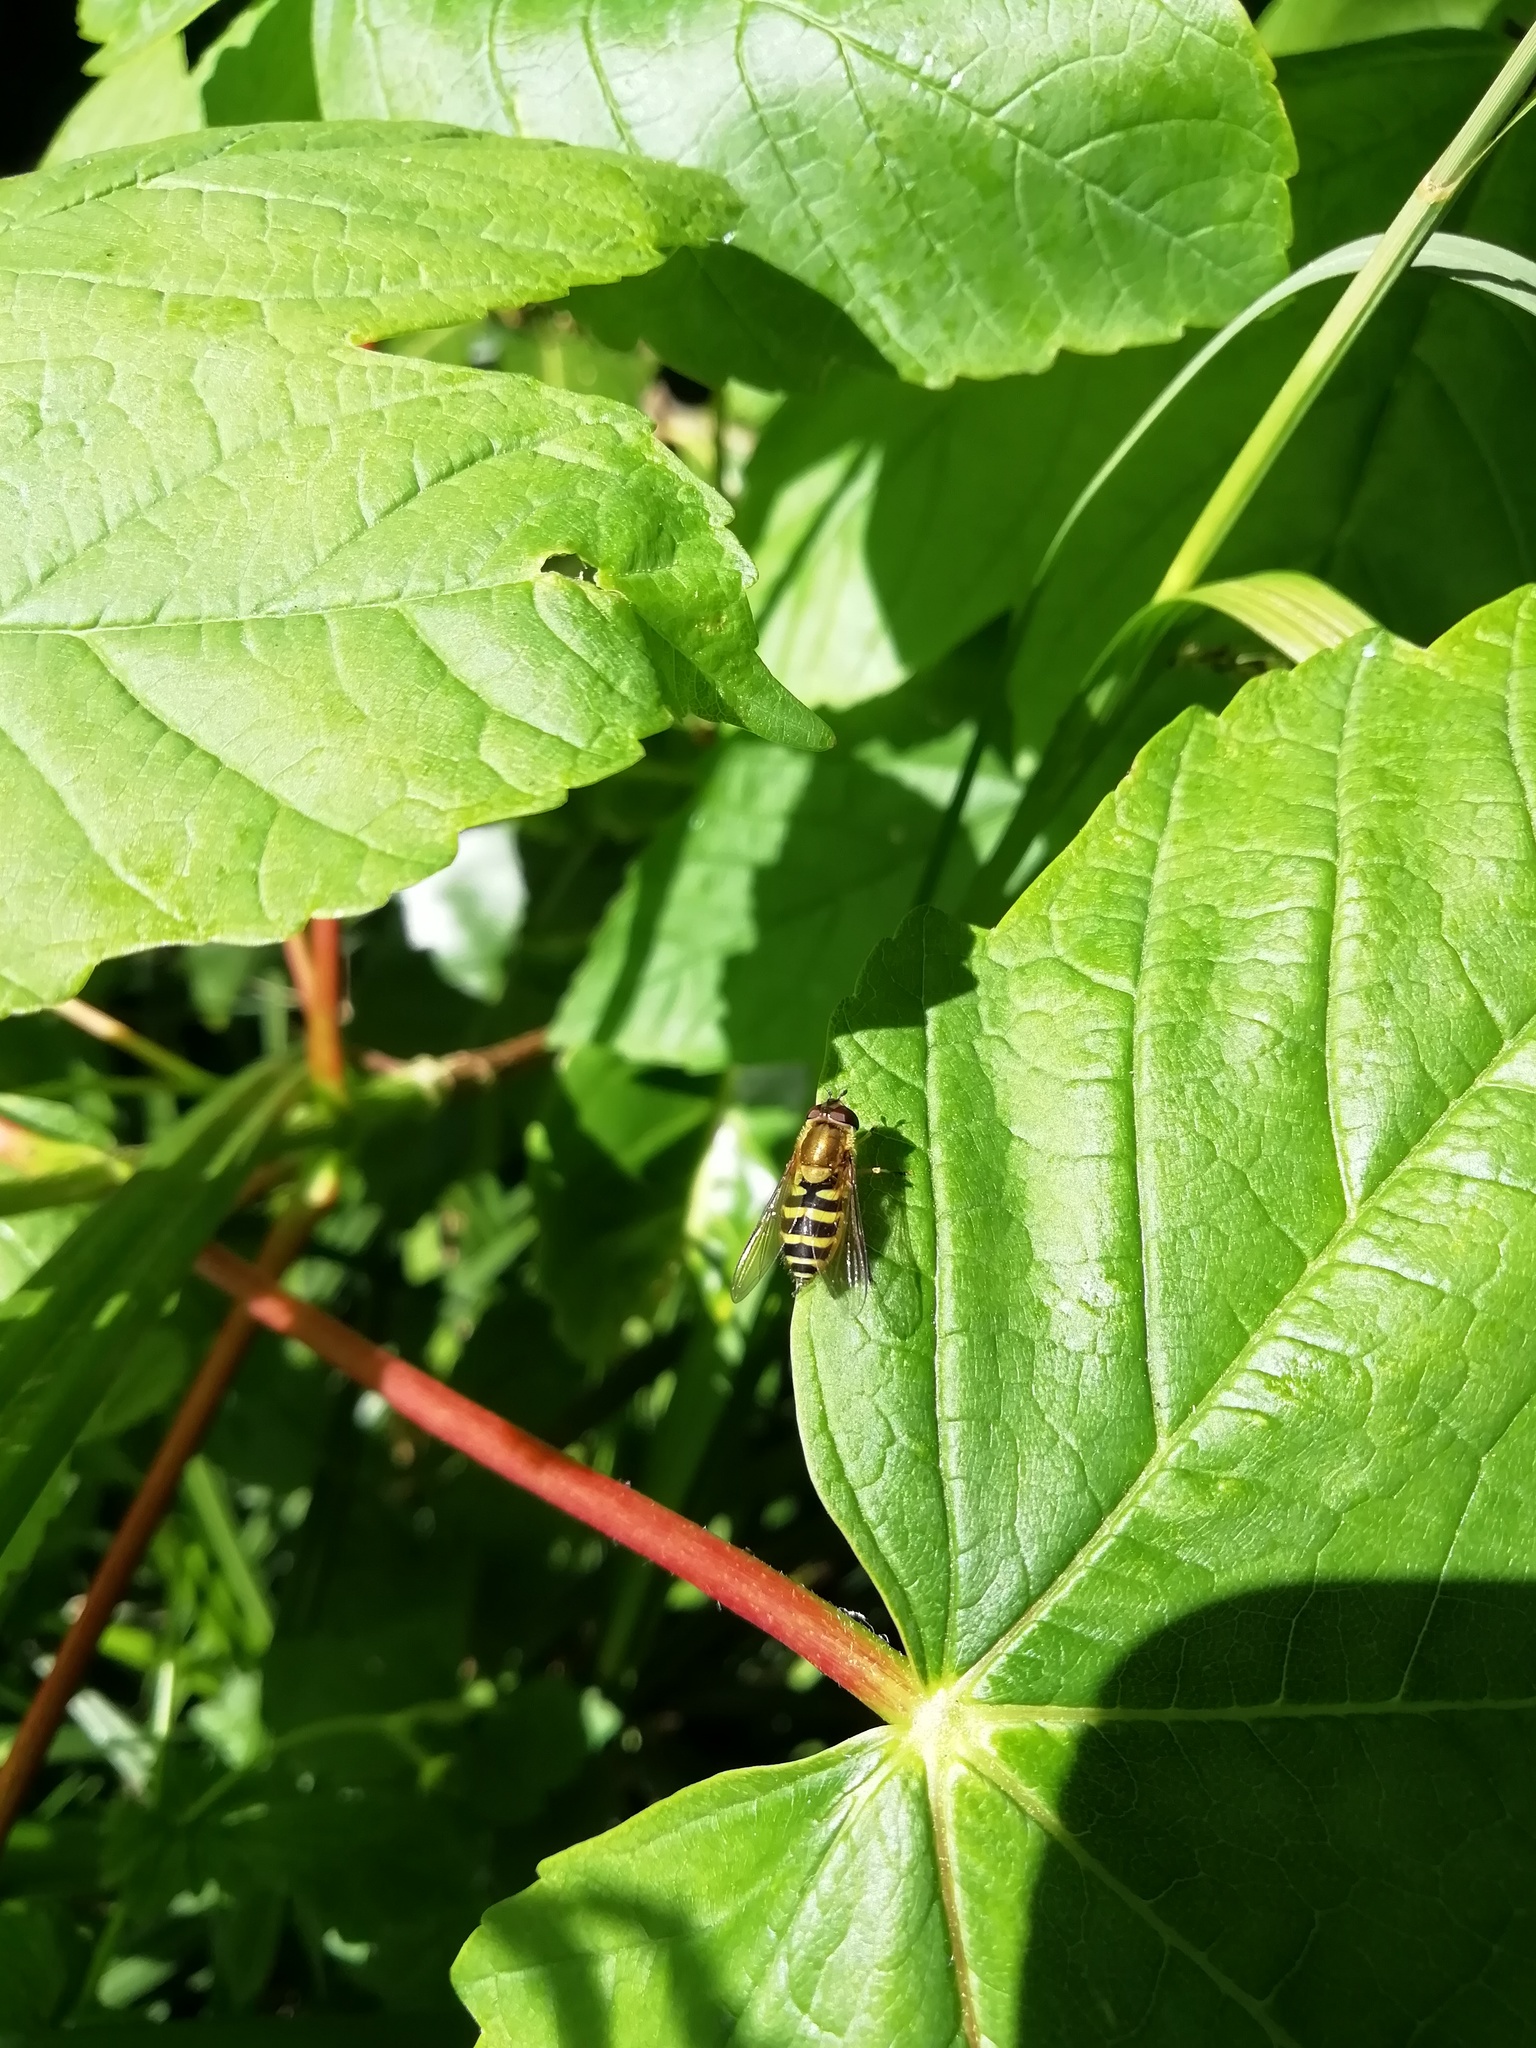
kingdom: Animalia
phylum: Arthropoda
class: Insecta
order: Diptera
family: Syrphidae
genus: Syrphus
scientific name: Syrphus
